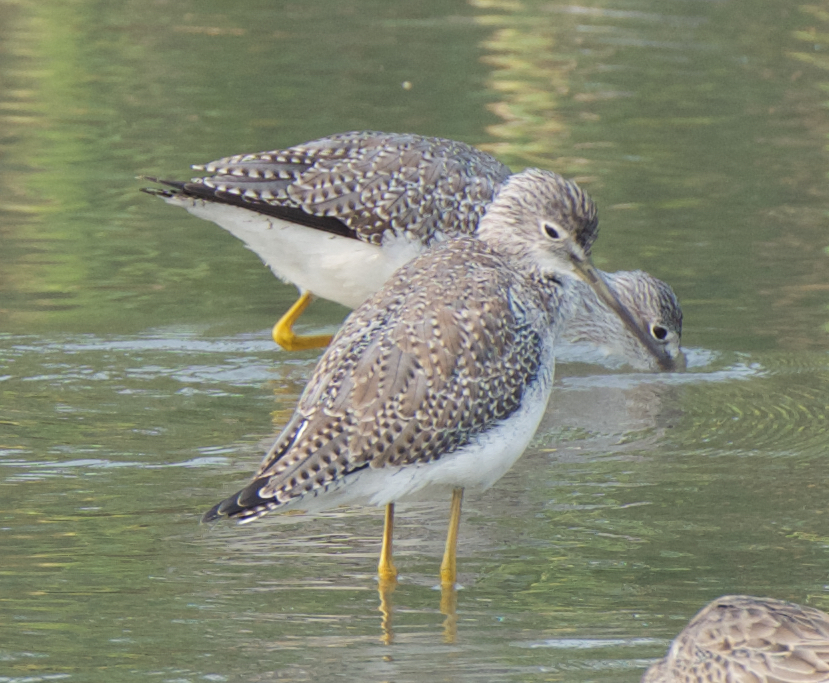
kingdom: Animalia
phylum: Chordata
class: Aves
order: Charadriiformes
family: Scolopacidae
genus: Tringa
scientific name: Tringa melanoleuca
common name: Greater yellowlegs
